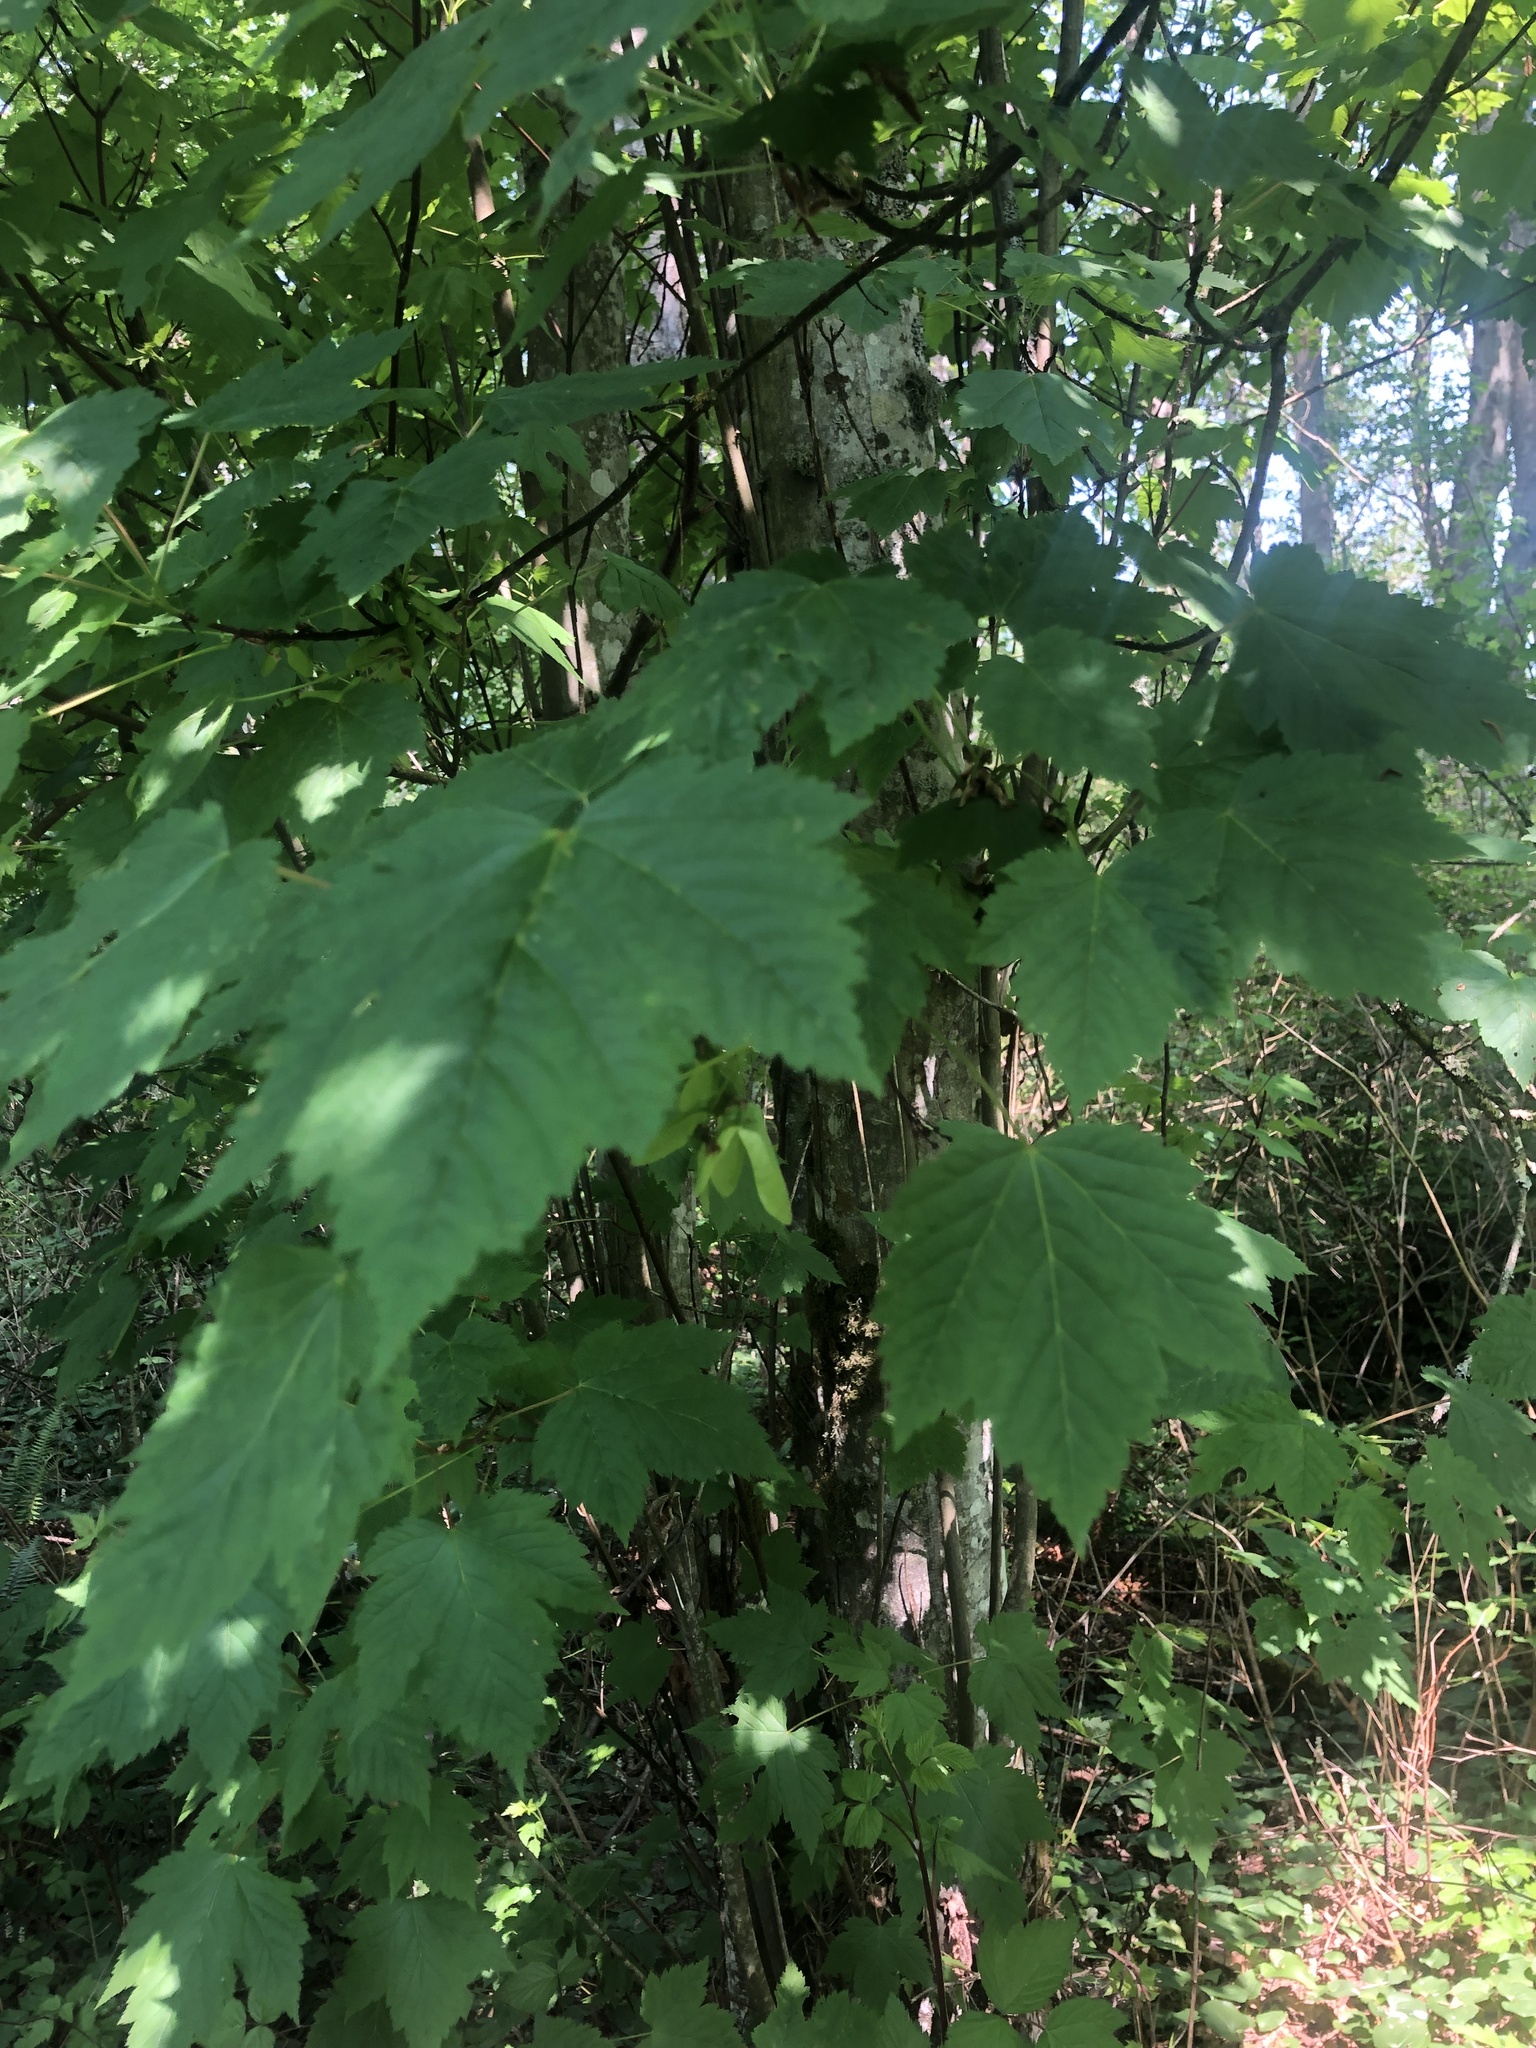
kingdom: Plantae
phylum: Tracheophyta
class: Magnoliopsida
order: Sapindales
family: Sapindaceae
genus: Acer
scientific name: Acer glabrum
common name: Rocky mountain maple
